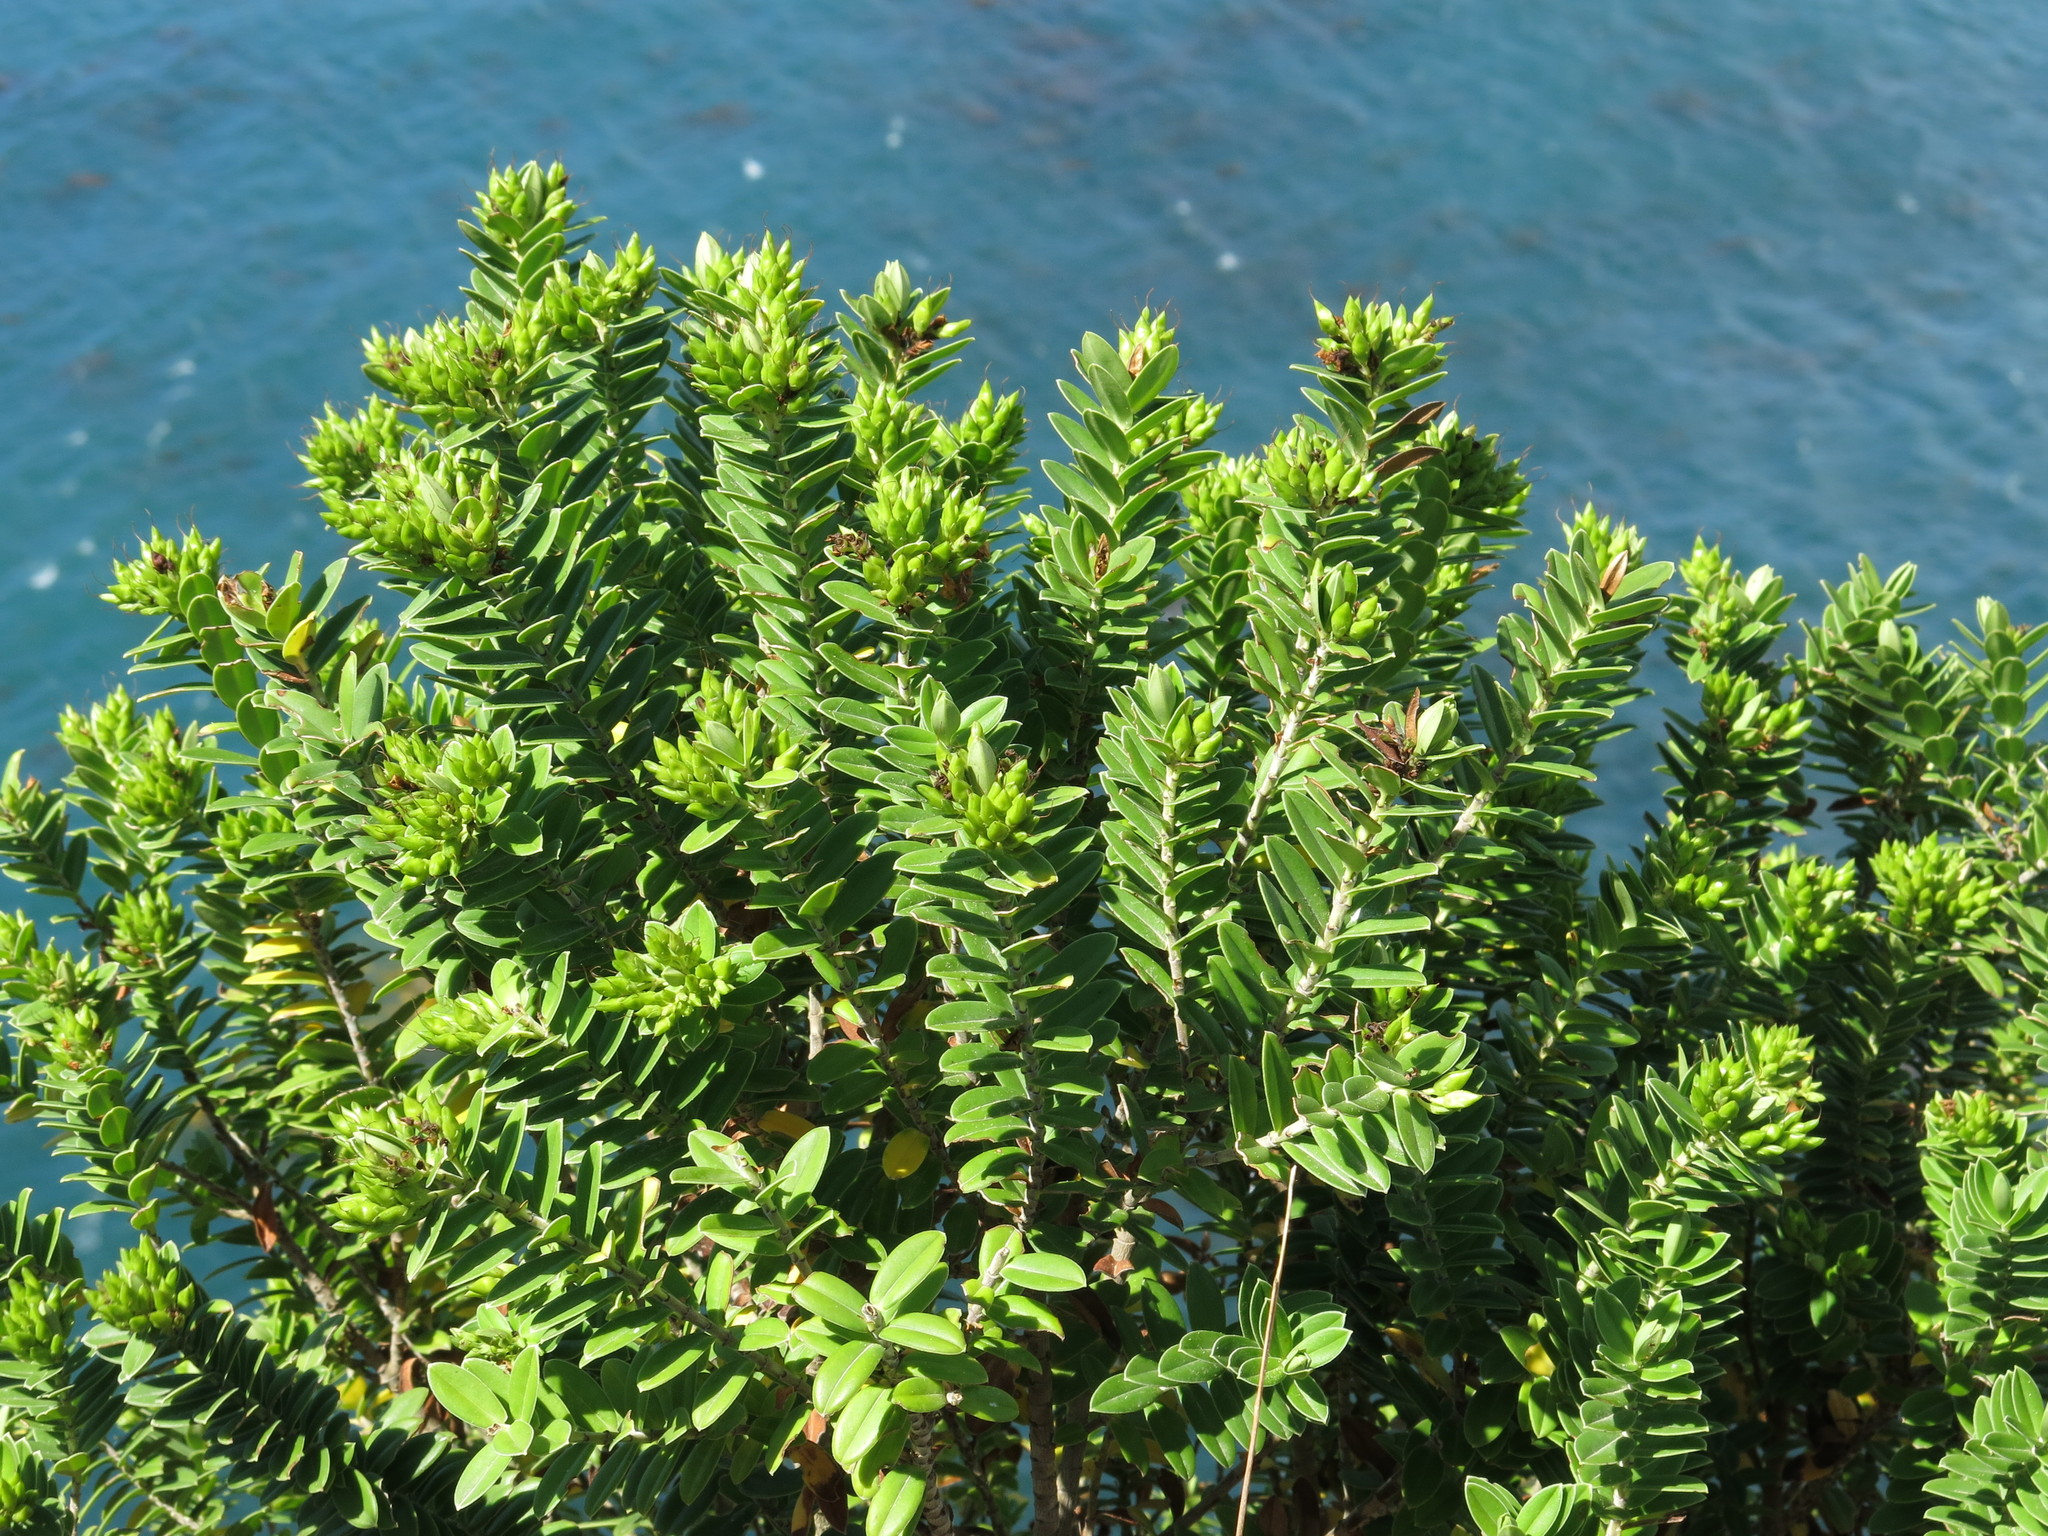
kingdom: Plantae
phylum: Tracheophyta
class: Magnoliopsida
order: Lamiales
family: Plantaginaceae
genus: Veronica
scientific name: Veronica elliptica
